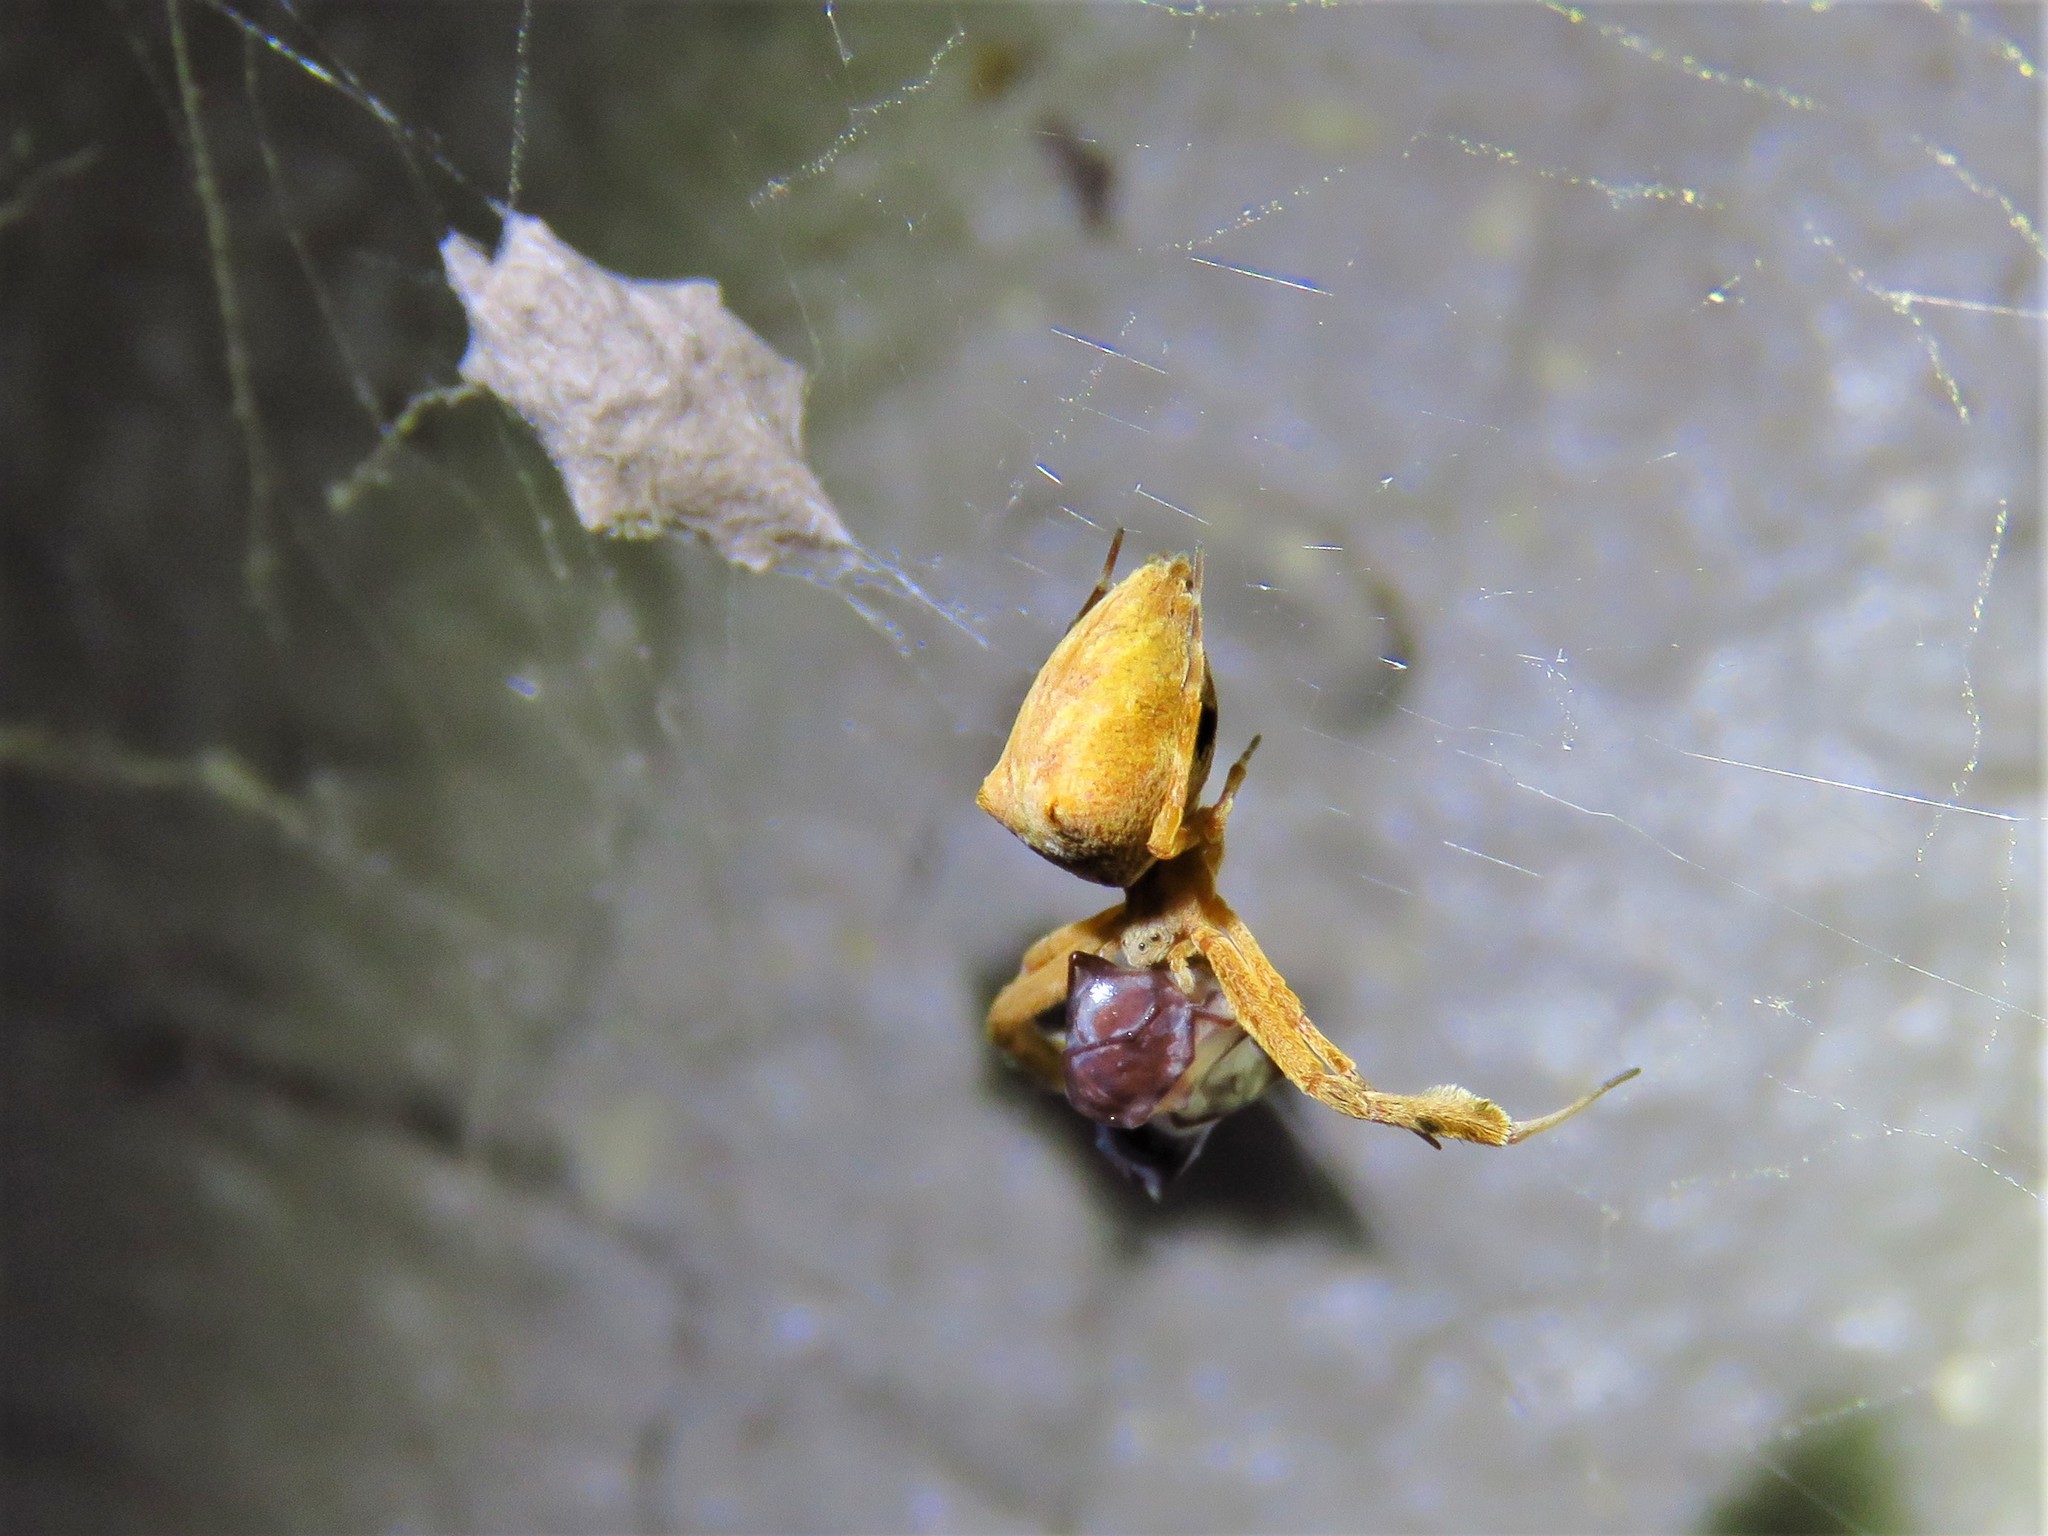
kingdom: Animalia
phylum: Arthropoda
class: Arachnida
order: Araneae
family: Uloboridae
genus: Uloborus
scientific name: Uloborus glomosus
